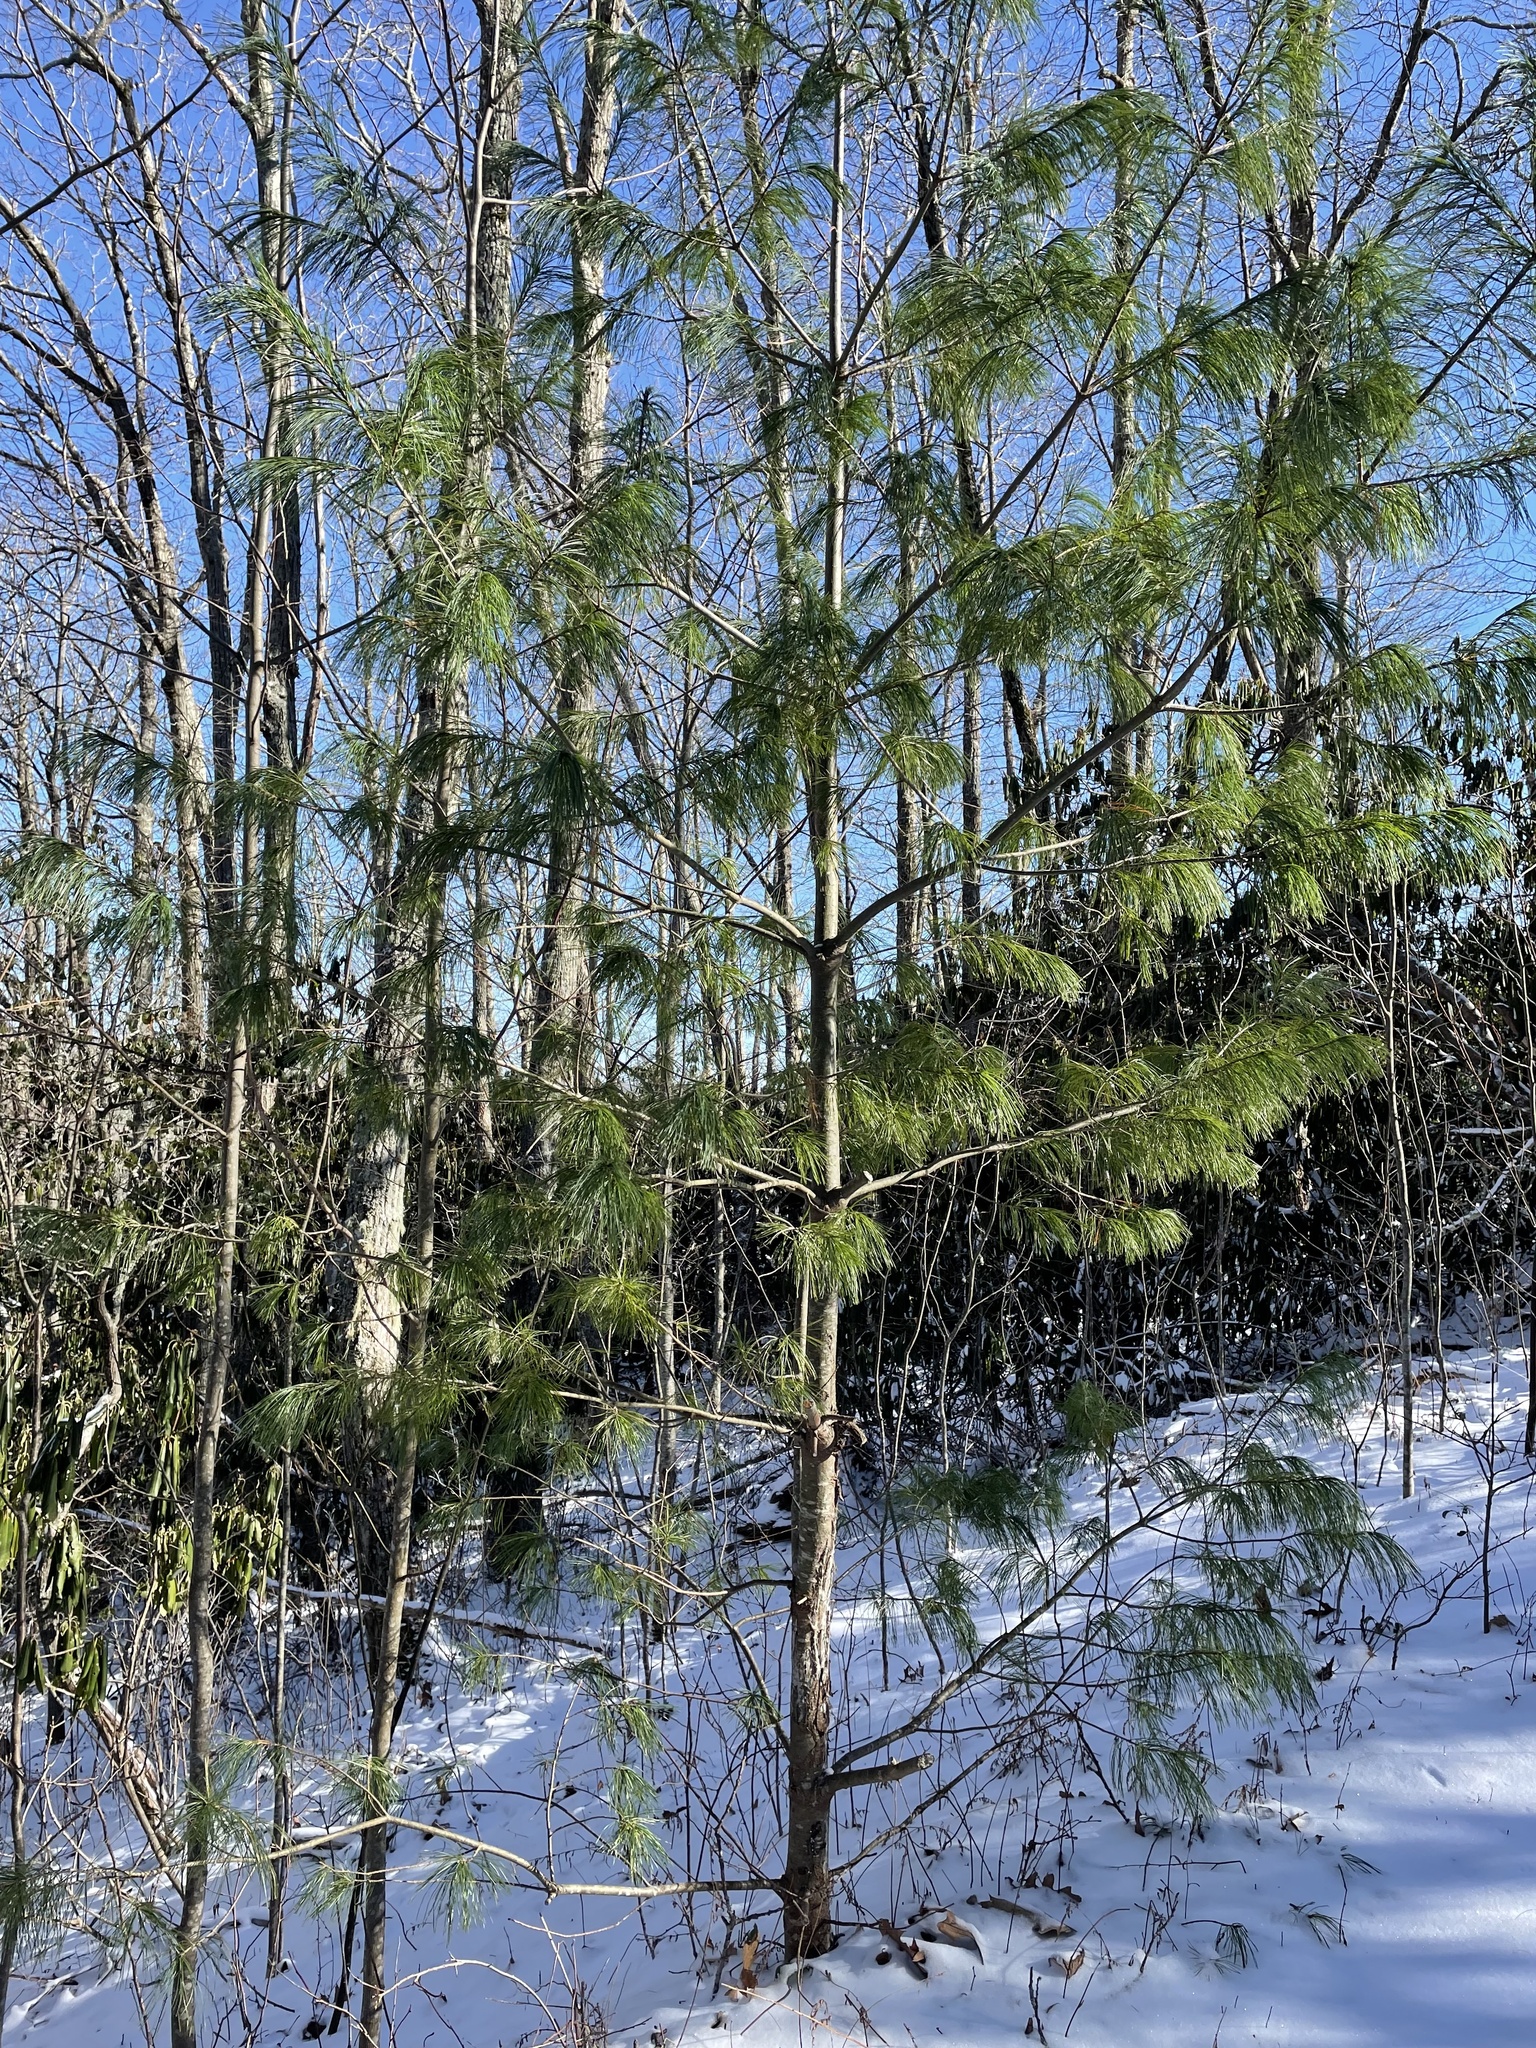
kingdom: Plantae
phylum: Tracheophyta
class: Pinopsida
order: Pinales
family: Pinaceae
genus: Pinus
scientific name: Pinus strobus
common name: Weymouth pine
